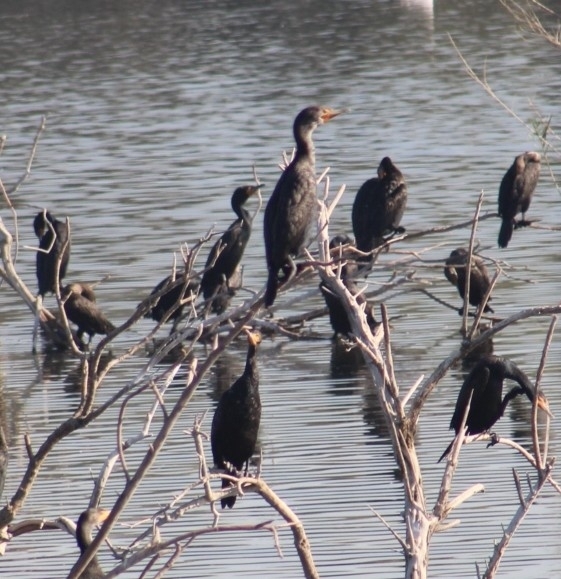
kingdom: Animalia
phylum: Chordata
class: Aves
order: Suliformes
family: Phalacrocoracidae
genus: Phalacrocorax
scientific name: Phalacrocorax auritus
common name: Double-crested cormorant
